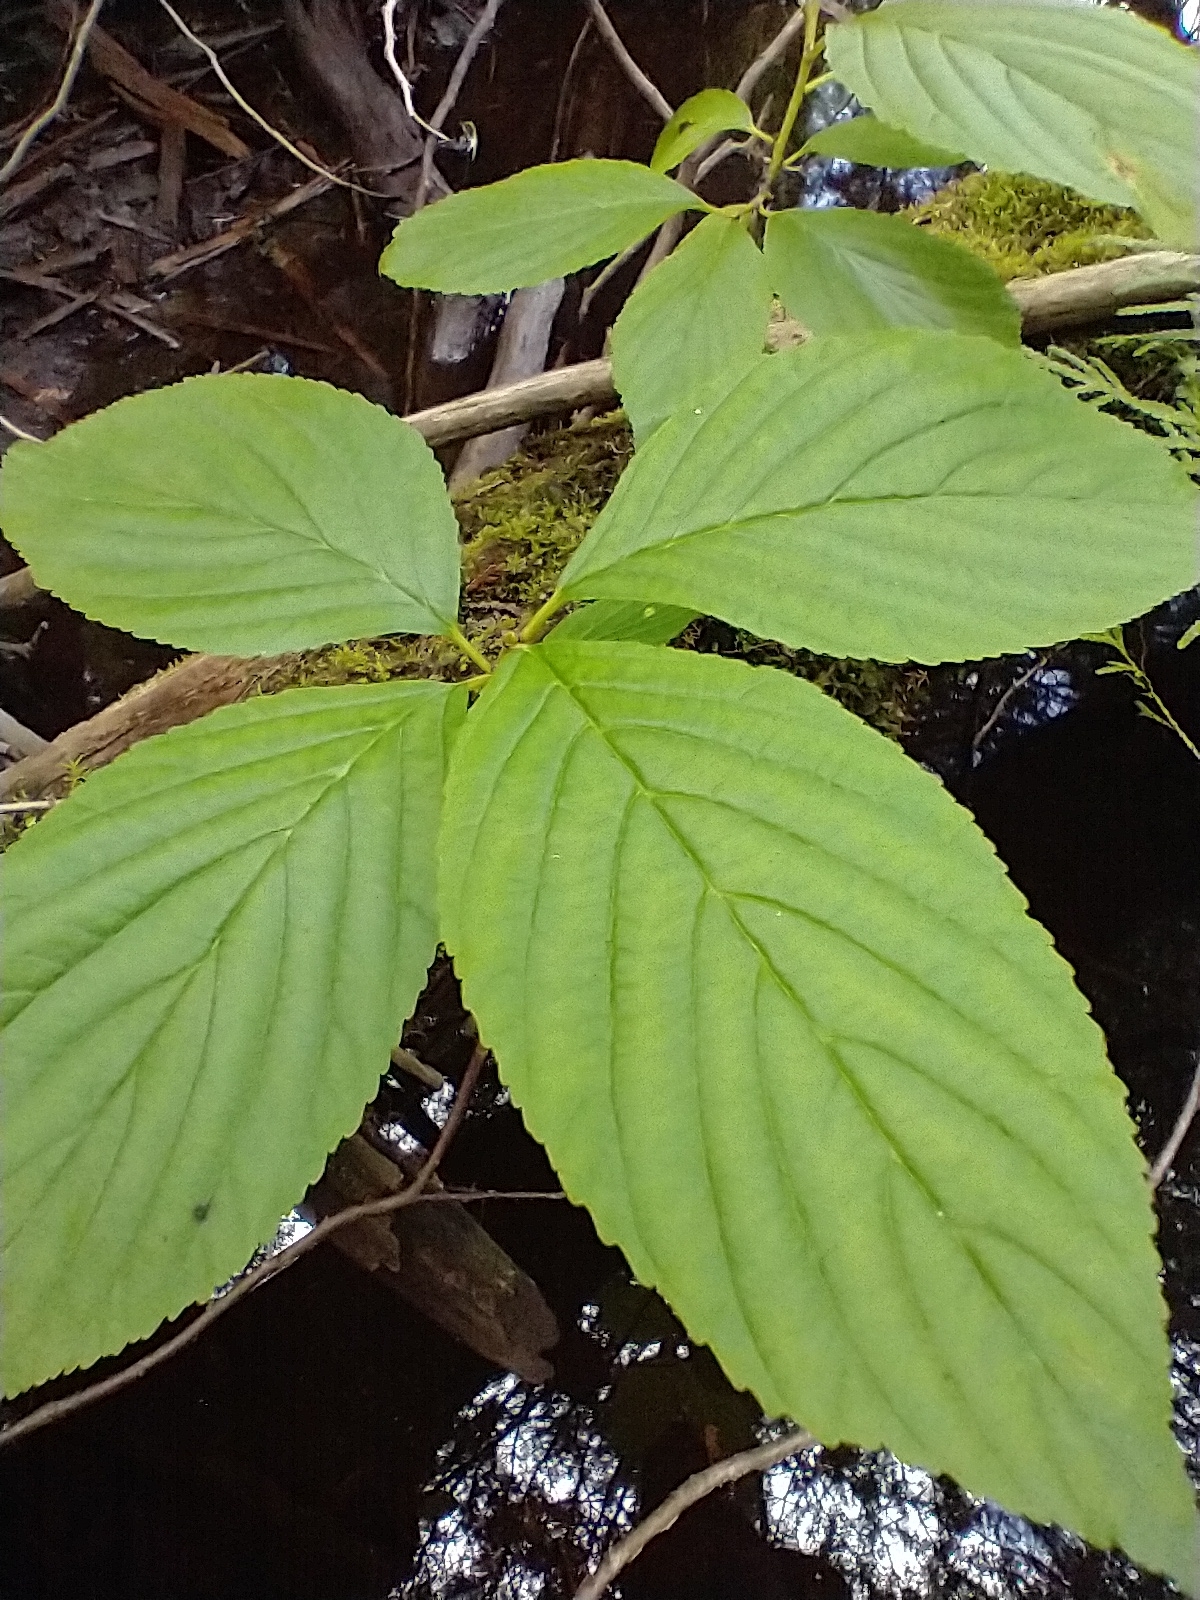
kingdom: Plantae
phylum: Tracheophyta
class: Magnoliopsida
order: Rosales
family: Rhamnaceae
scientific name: Rhamnaceae
